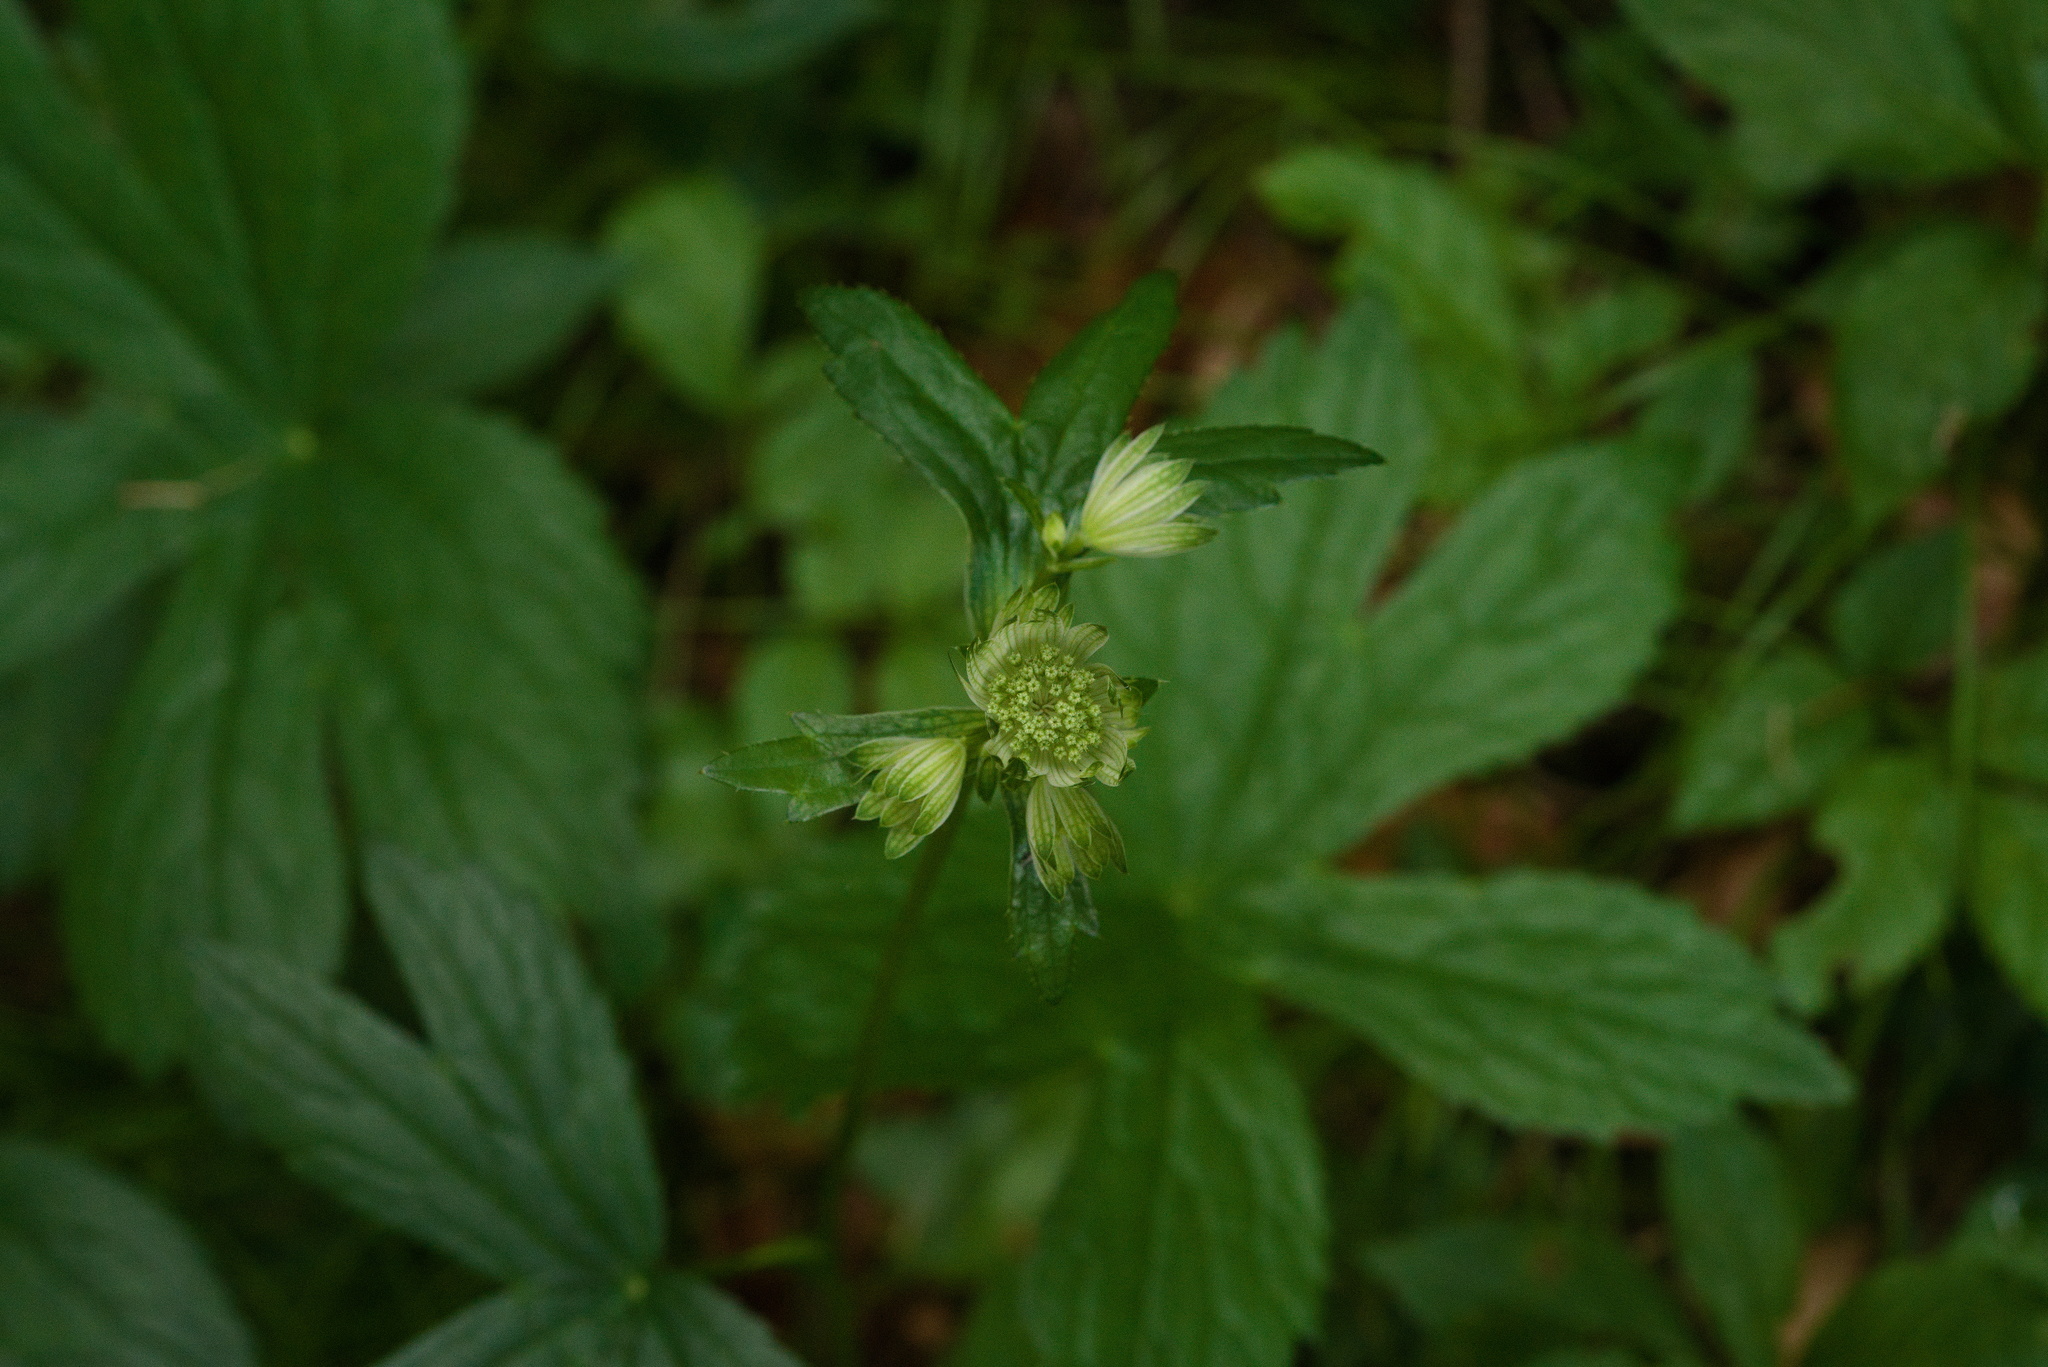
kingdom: Plantae
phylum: Tracheophyta
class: Magnoliopsida
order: Apiales
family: Apiaceae
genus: Astrantia
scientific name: Astrantia major
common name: Greater masterwort
